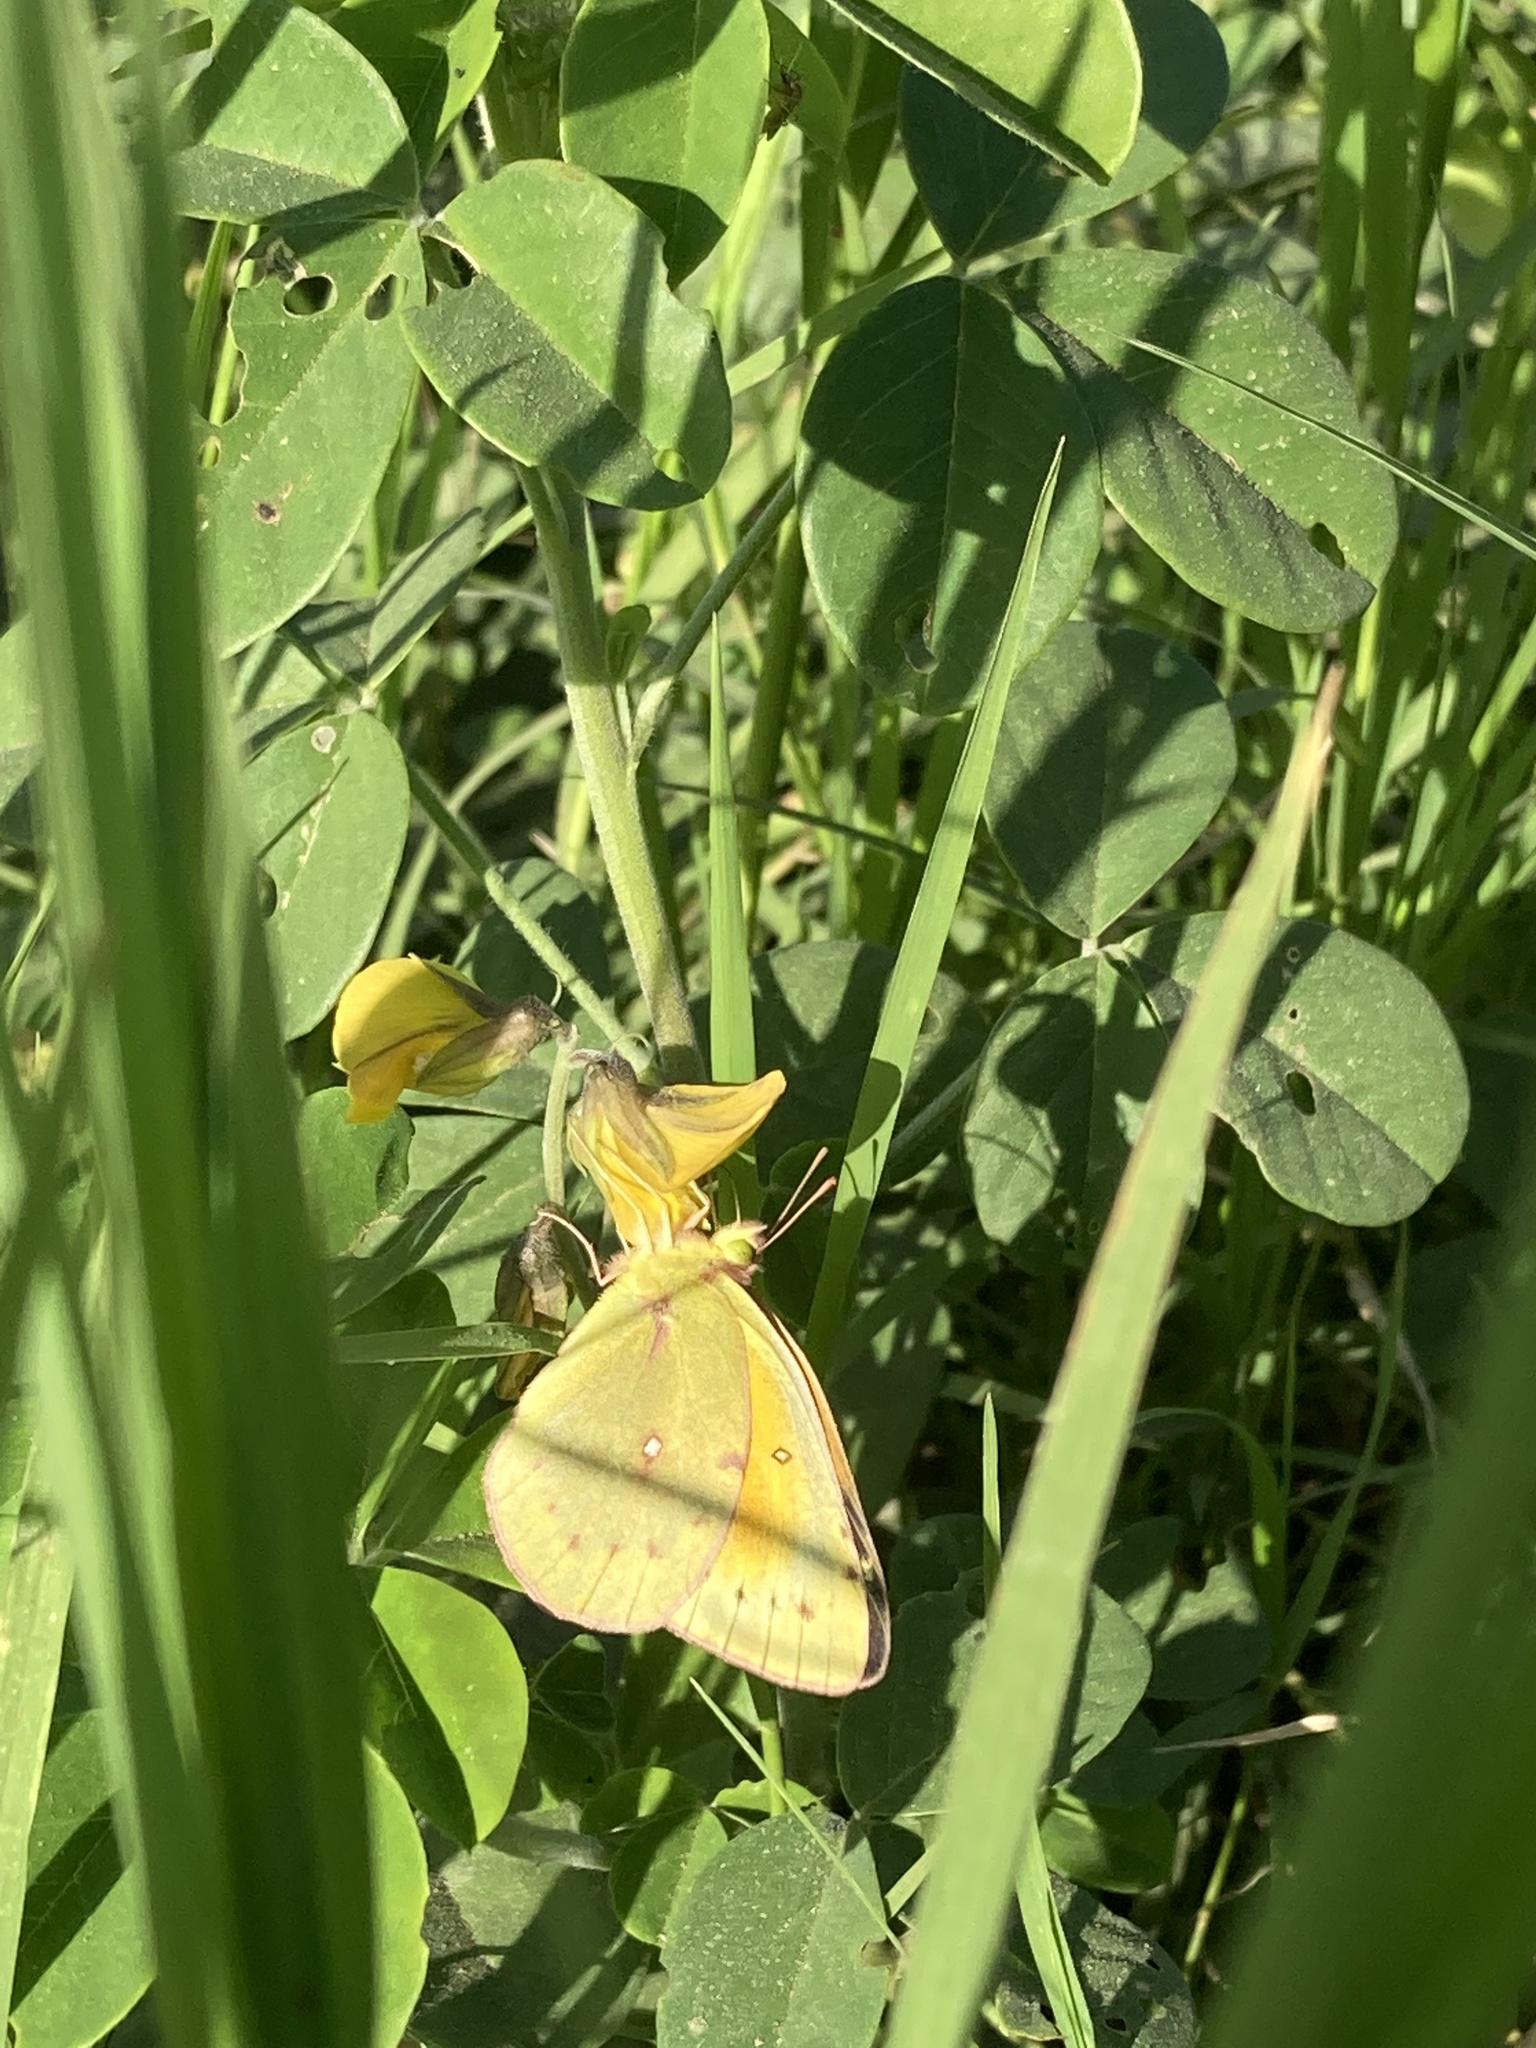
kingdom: Animalia
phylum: Arthropoda
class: Insecta
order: Lepidoptera
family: Pieridae
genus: Colias
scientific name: Colias lesbia
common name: Lesbia clouded yellow
